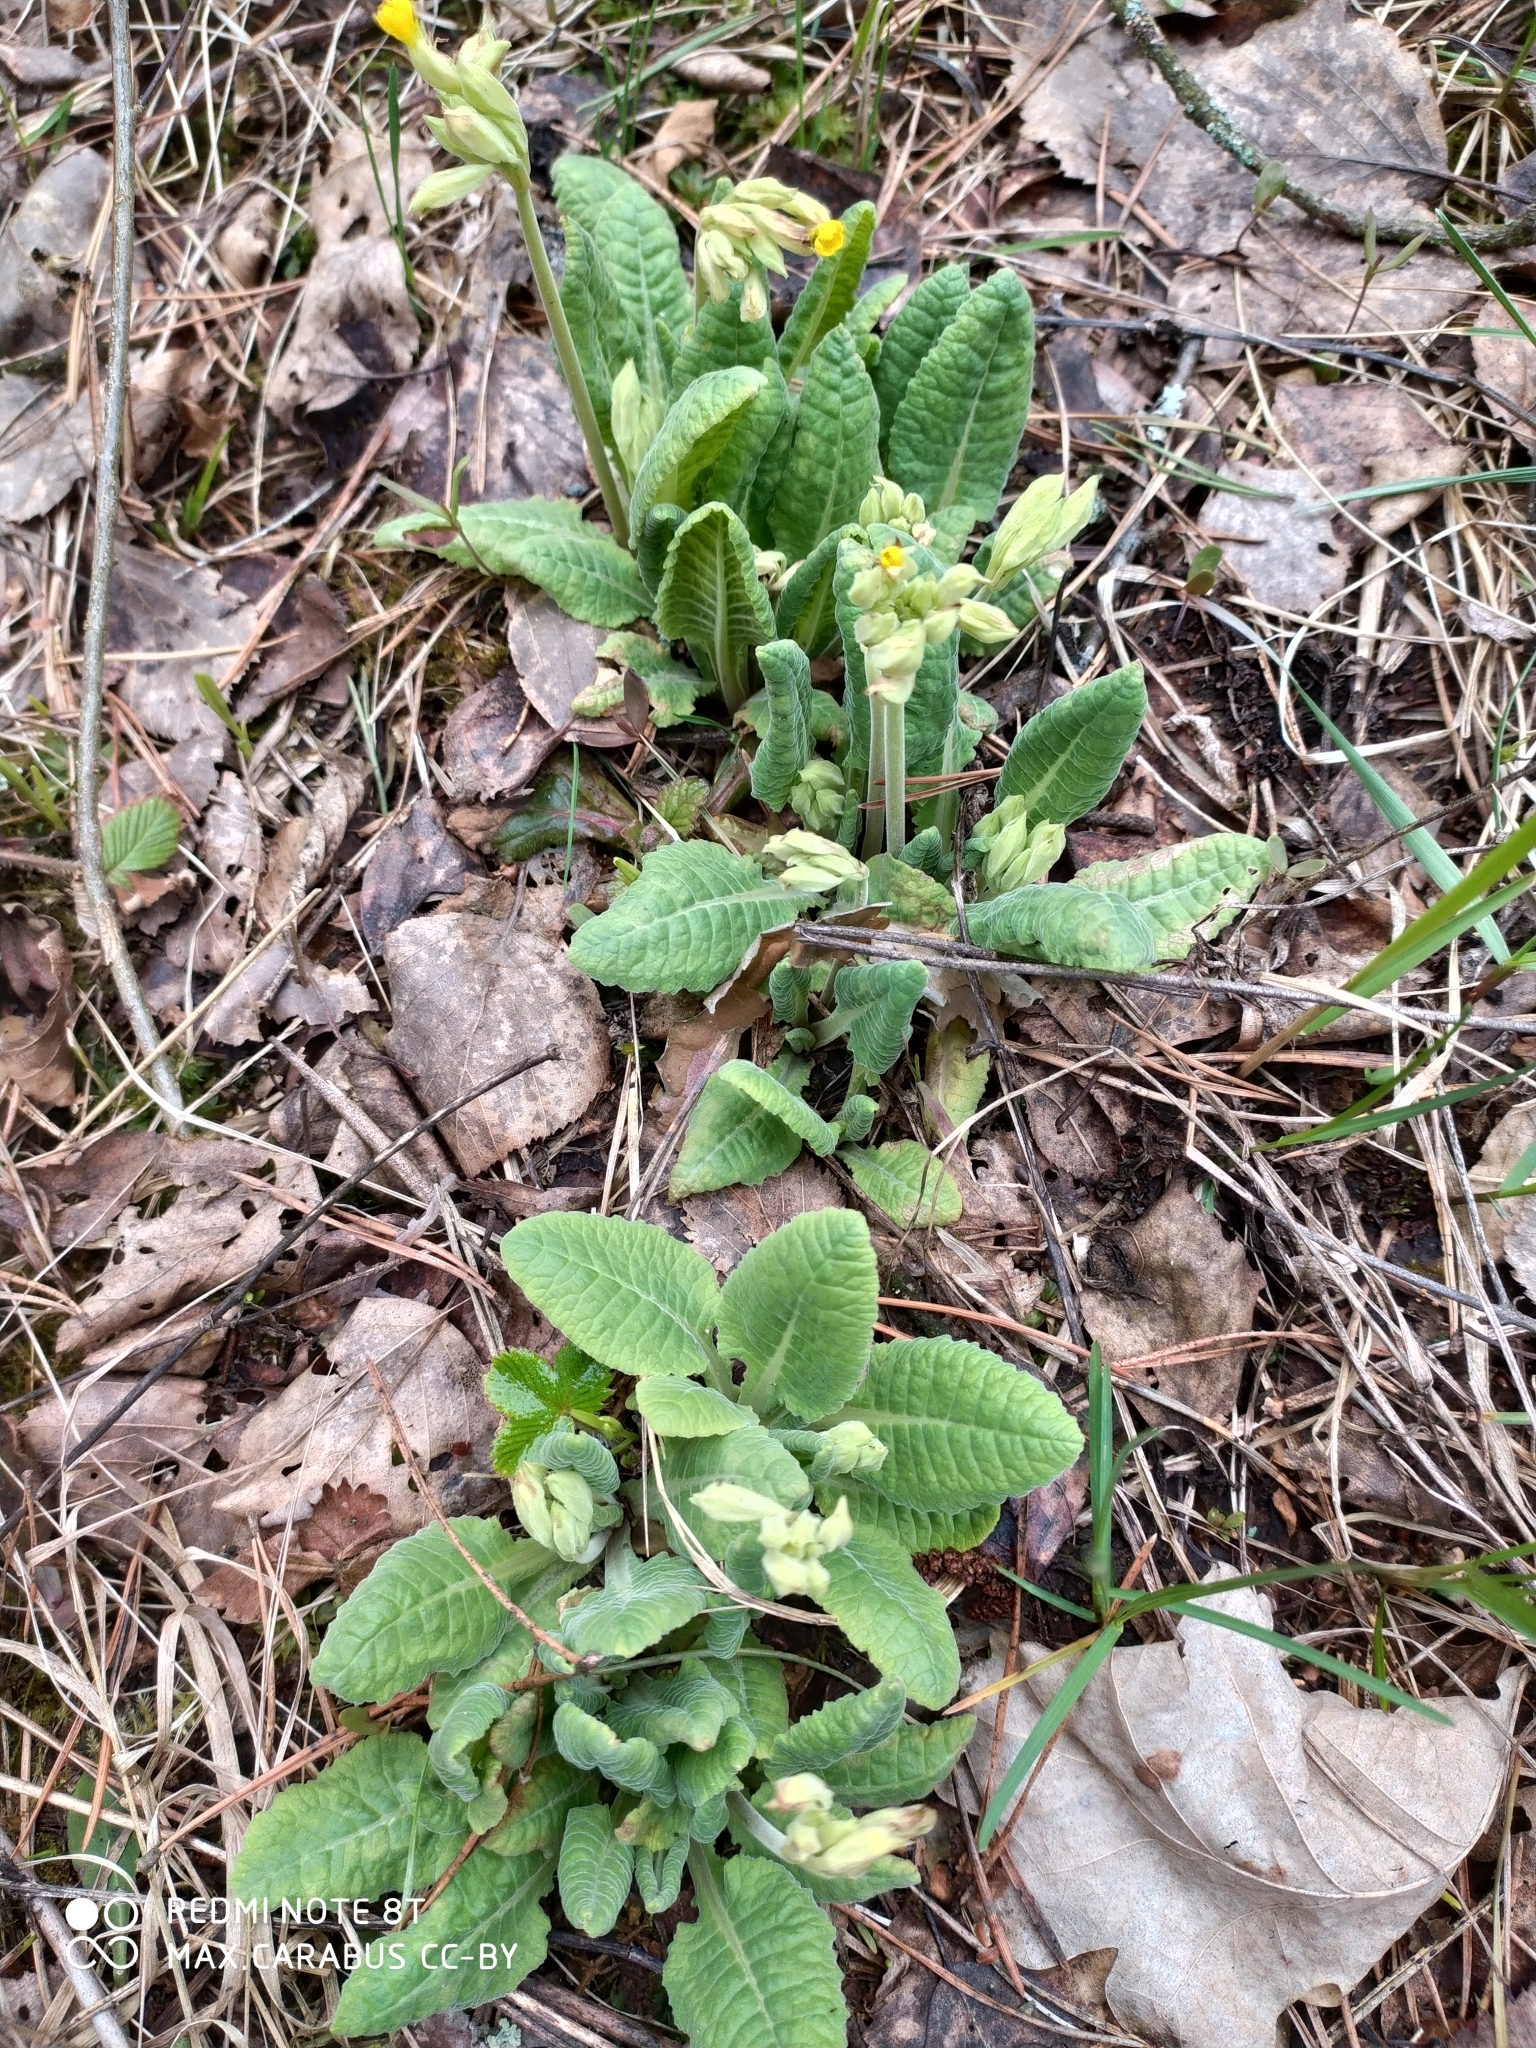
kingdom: Plantae
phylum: Tracheophyta
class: Magnoliopsida
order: Ericales
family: Primulaceae
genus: Primula
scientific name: Primula veris
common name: Cowslip
